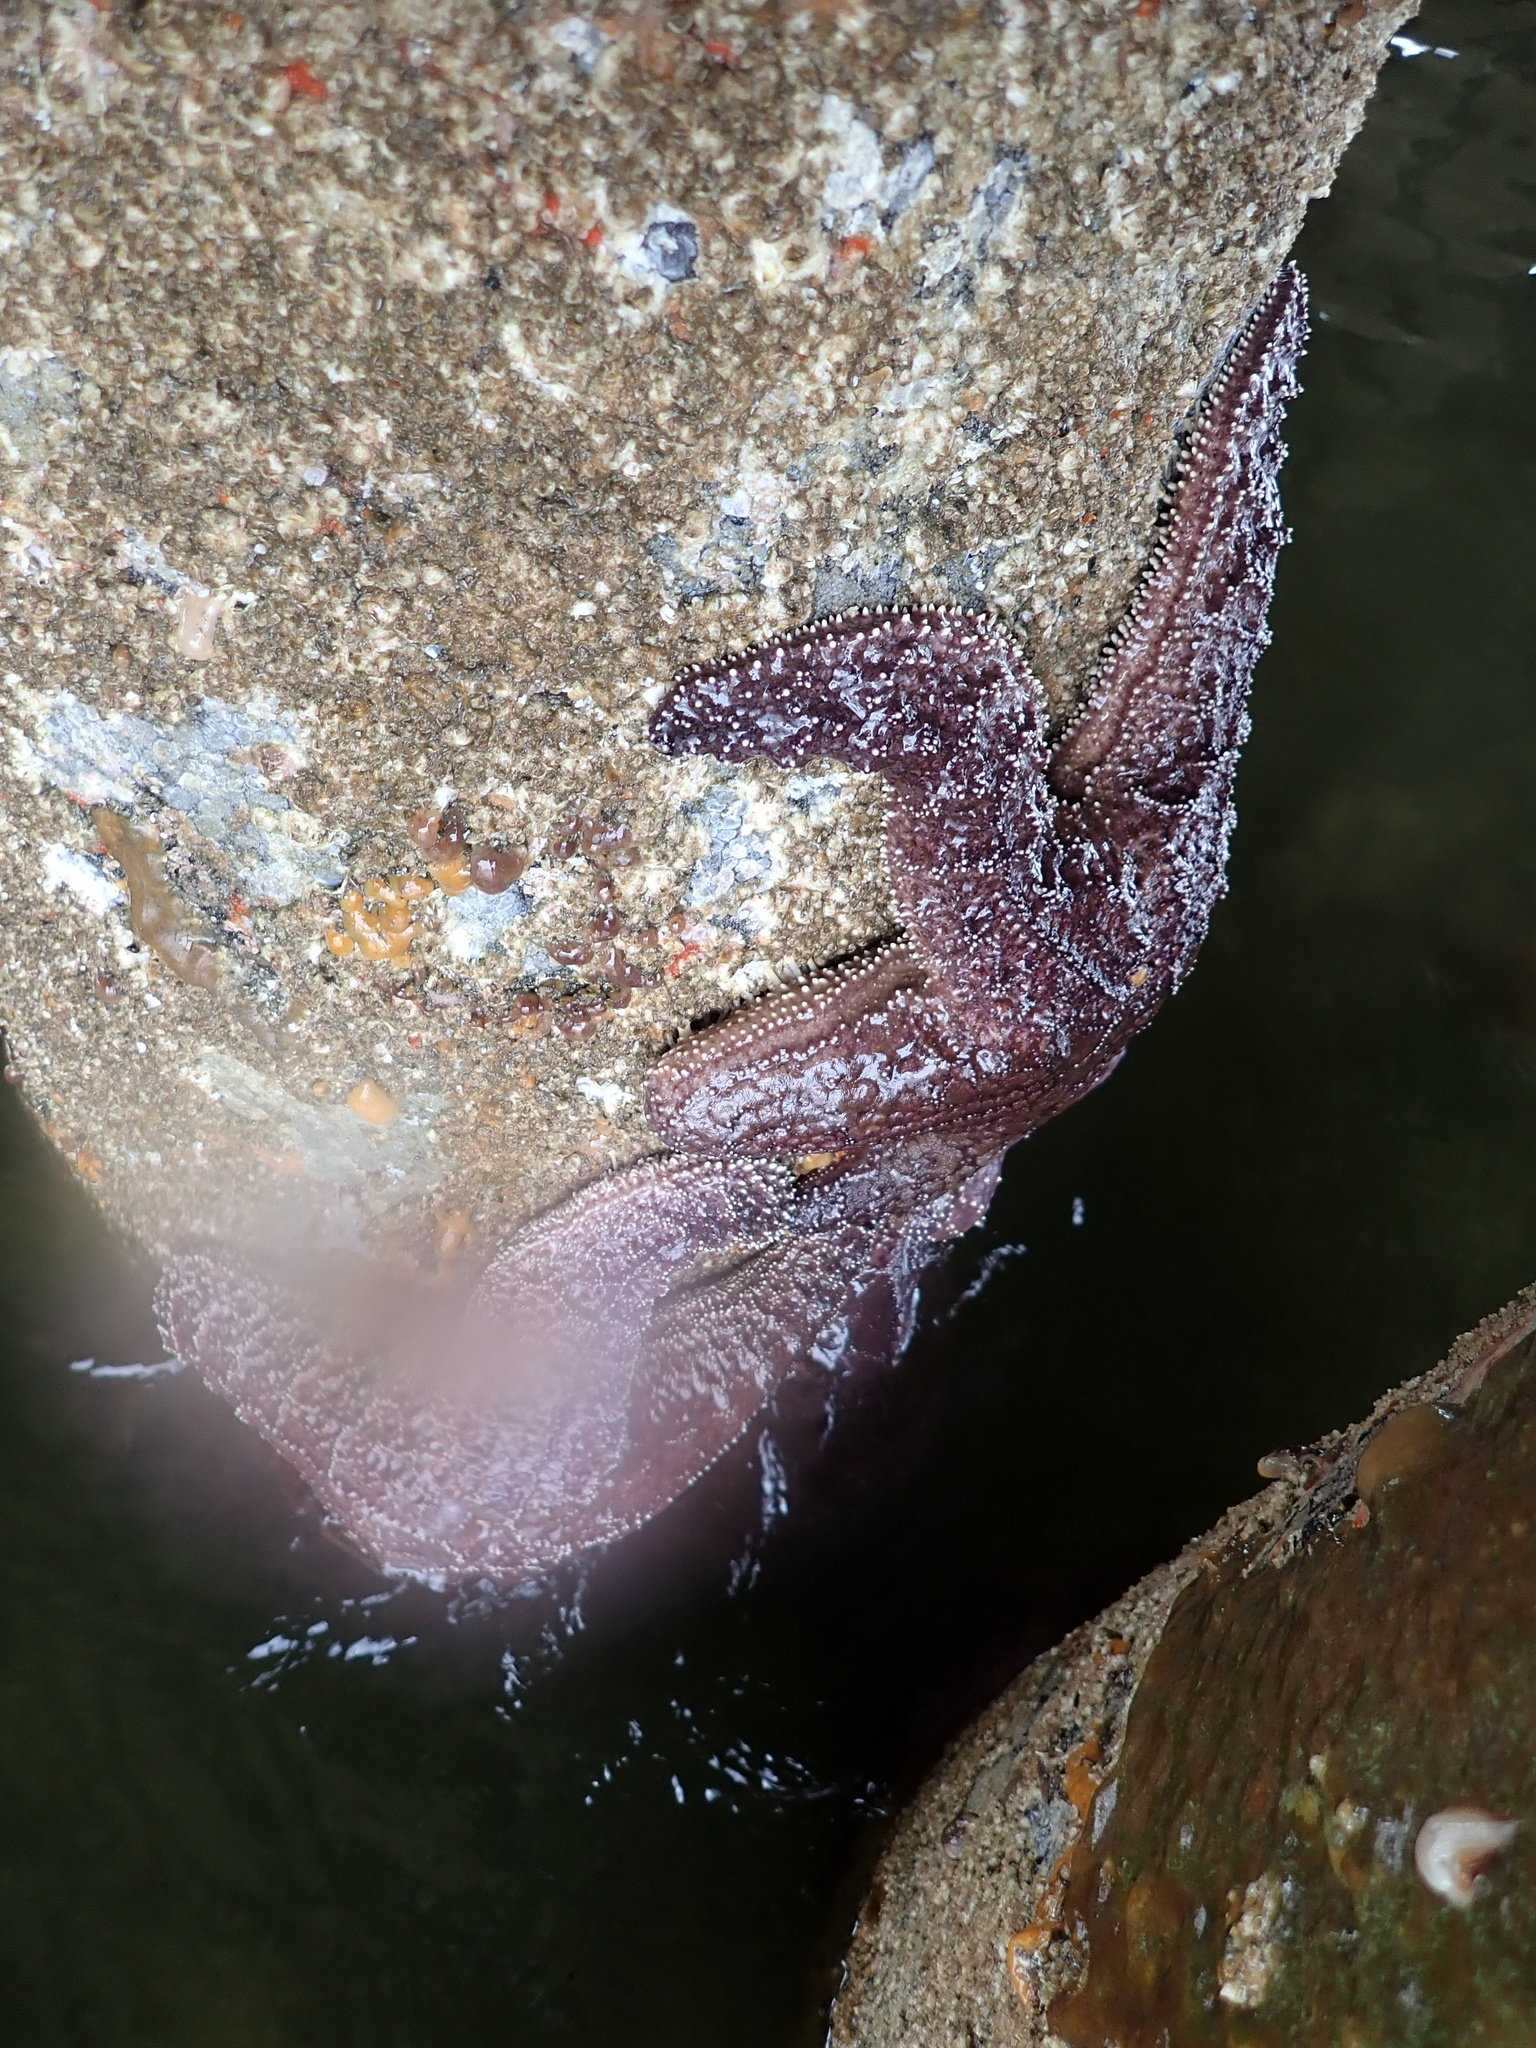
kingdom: Animalia
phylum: Echinodermata
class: Asteroidea
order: Forcipulatida
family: Asteriidae
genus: Pisaster
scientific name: Pisaster ochraceus
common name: Ochre stars
